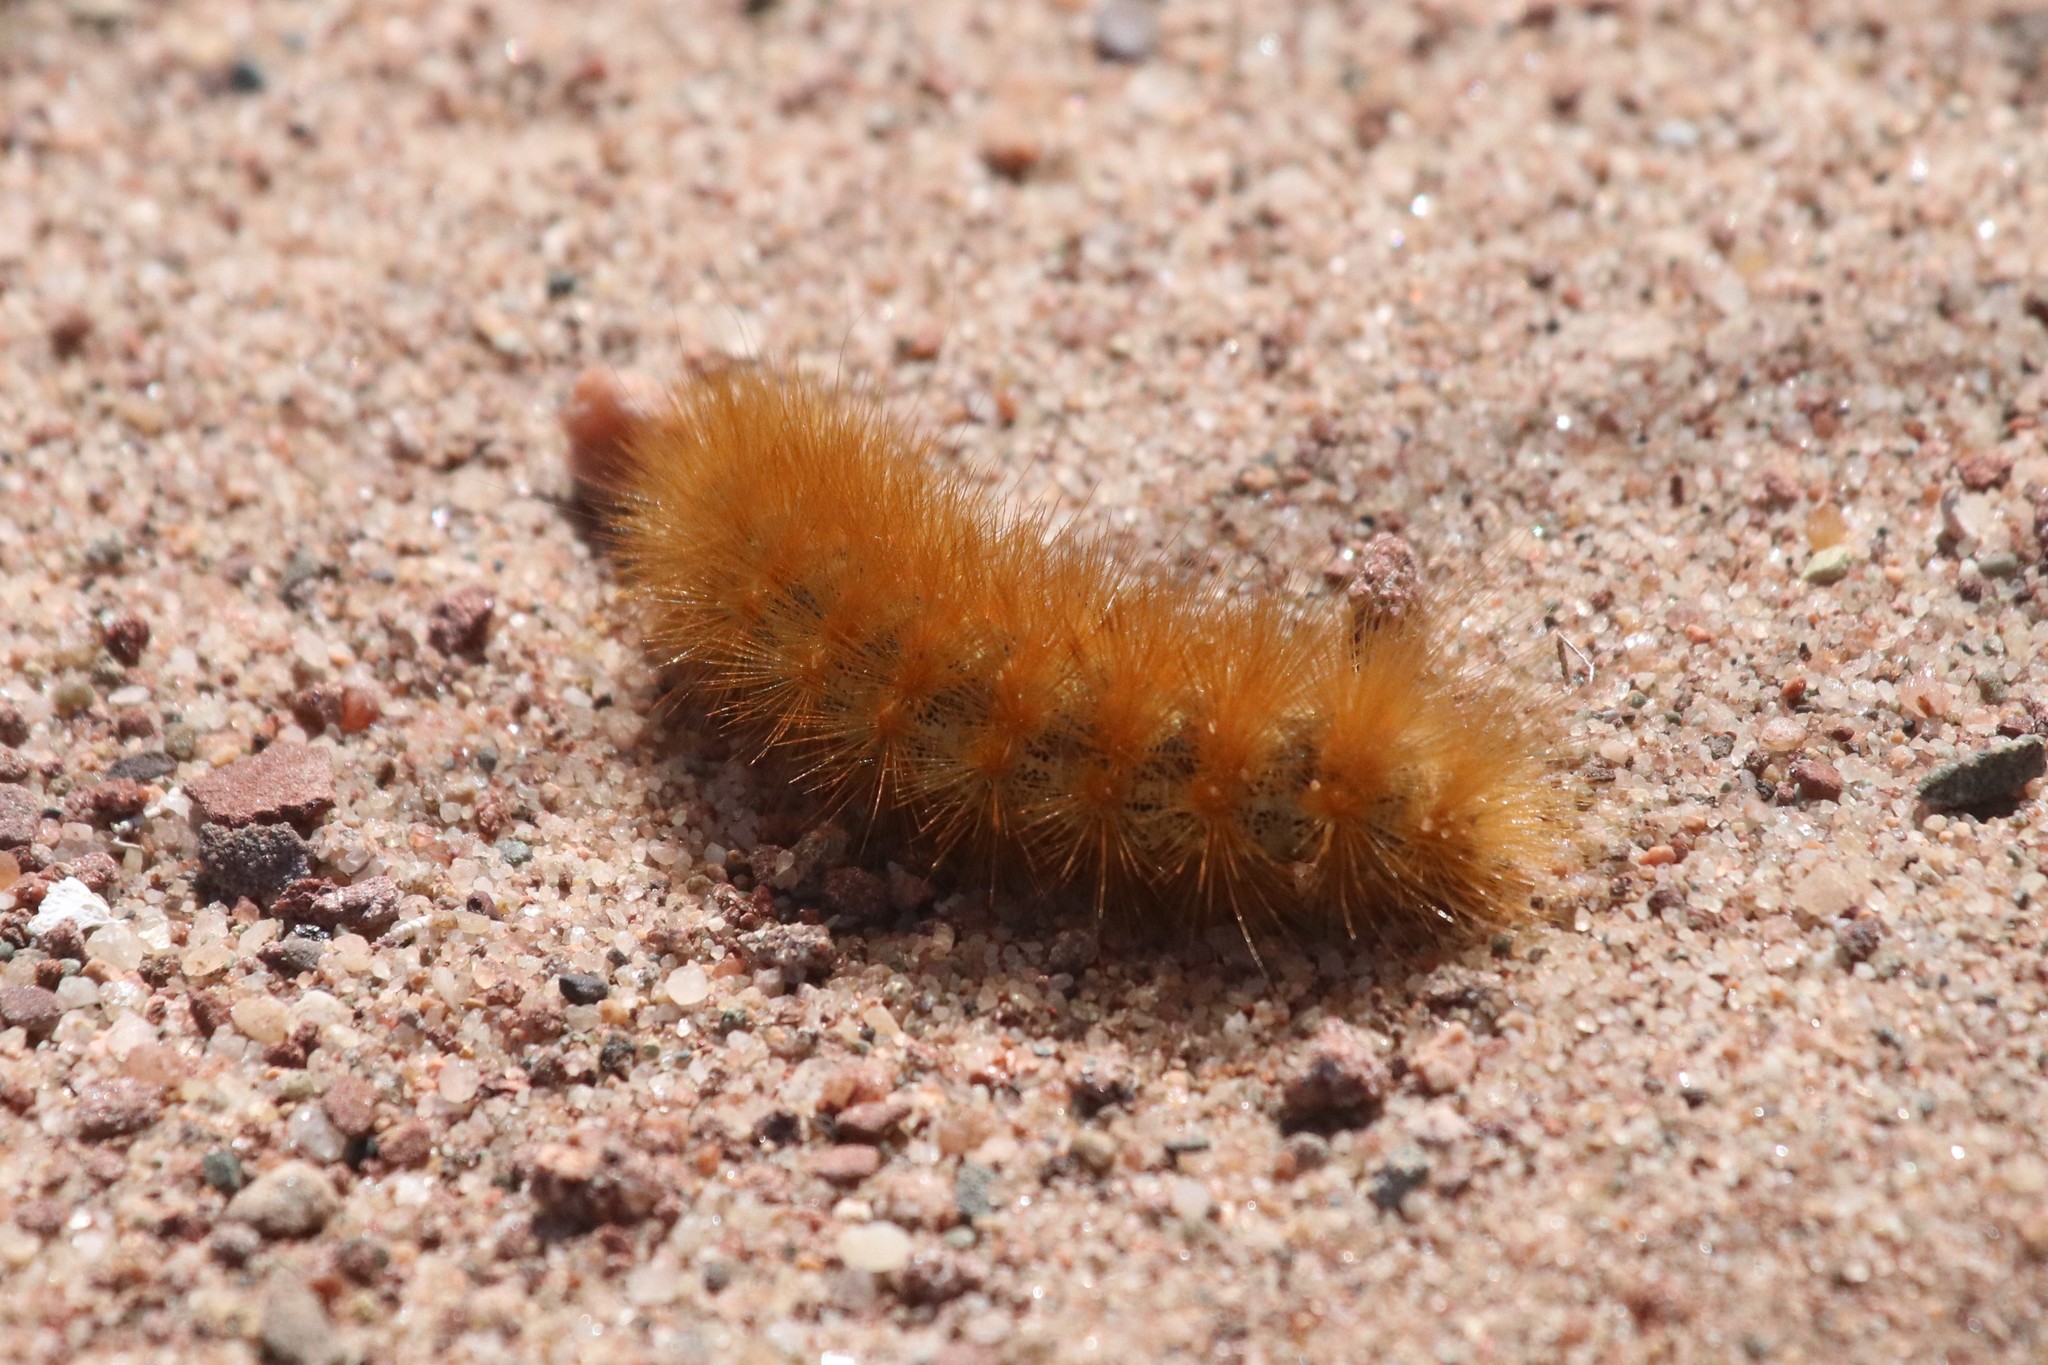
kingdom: Animalia
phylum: Arthropoda
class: Insecta
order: Lepidoptera
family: Erebidae
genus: Estigmene
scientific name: Estigmene acrea
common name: Salt marsh moth
